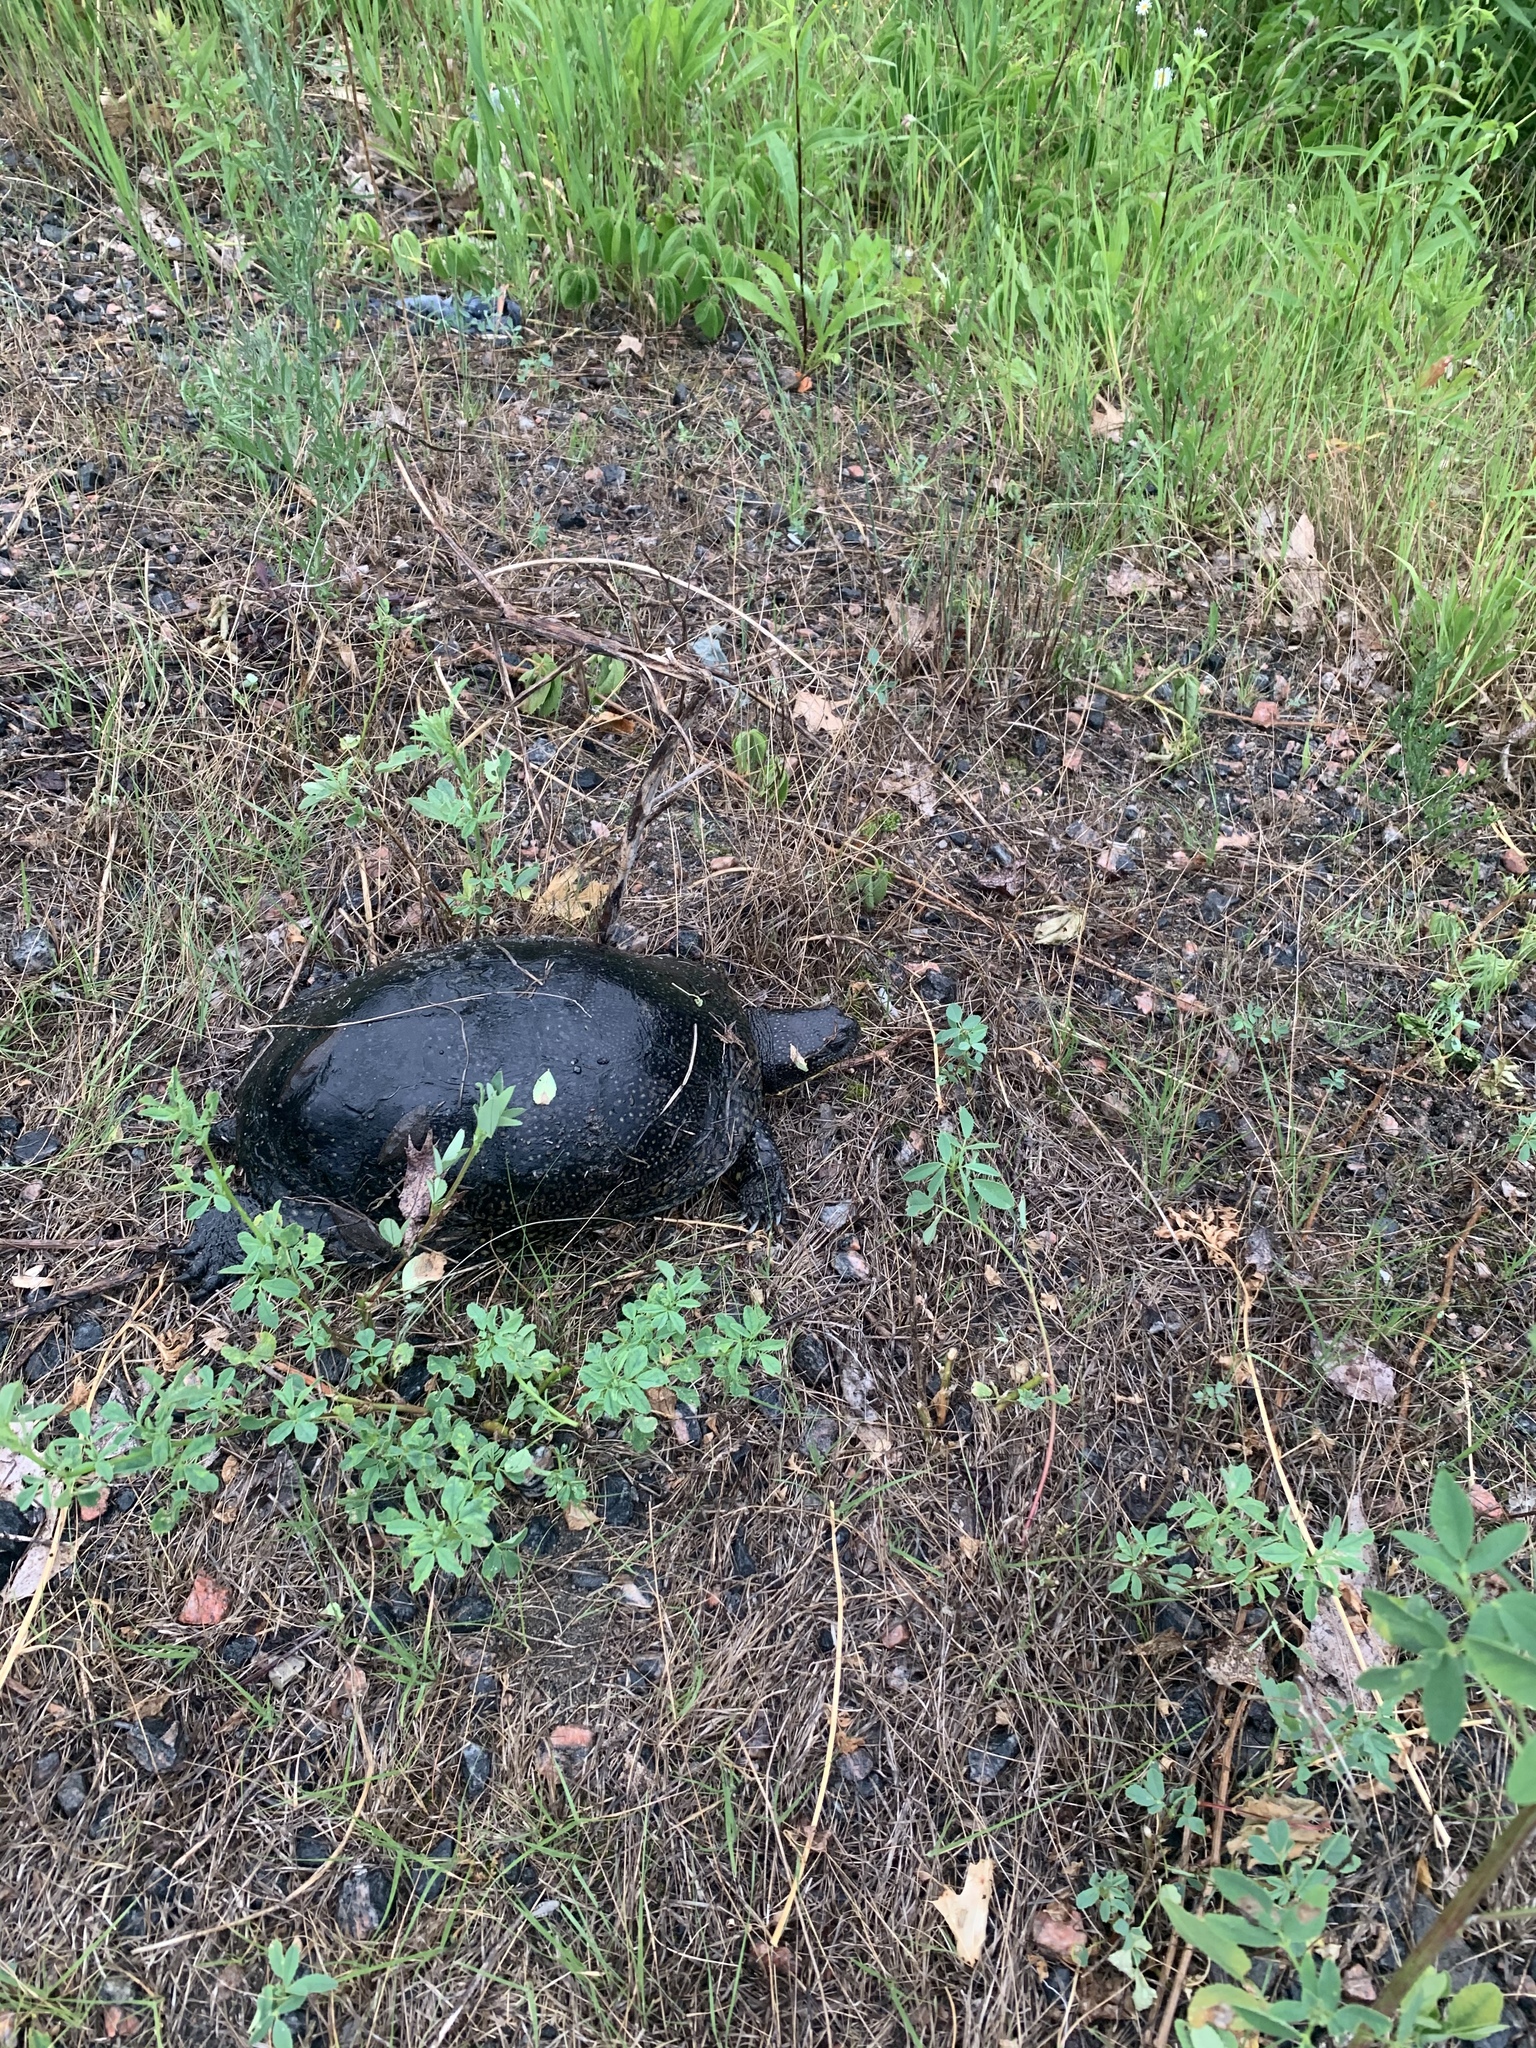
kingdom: Animalia
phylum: Chordata
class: Testudines
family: Emydidae
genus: Emys
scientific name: Emys blandingii
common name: Blanding's turtle
